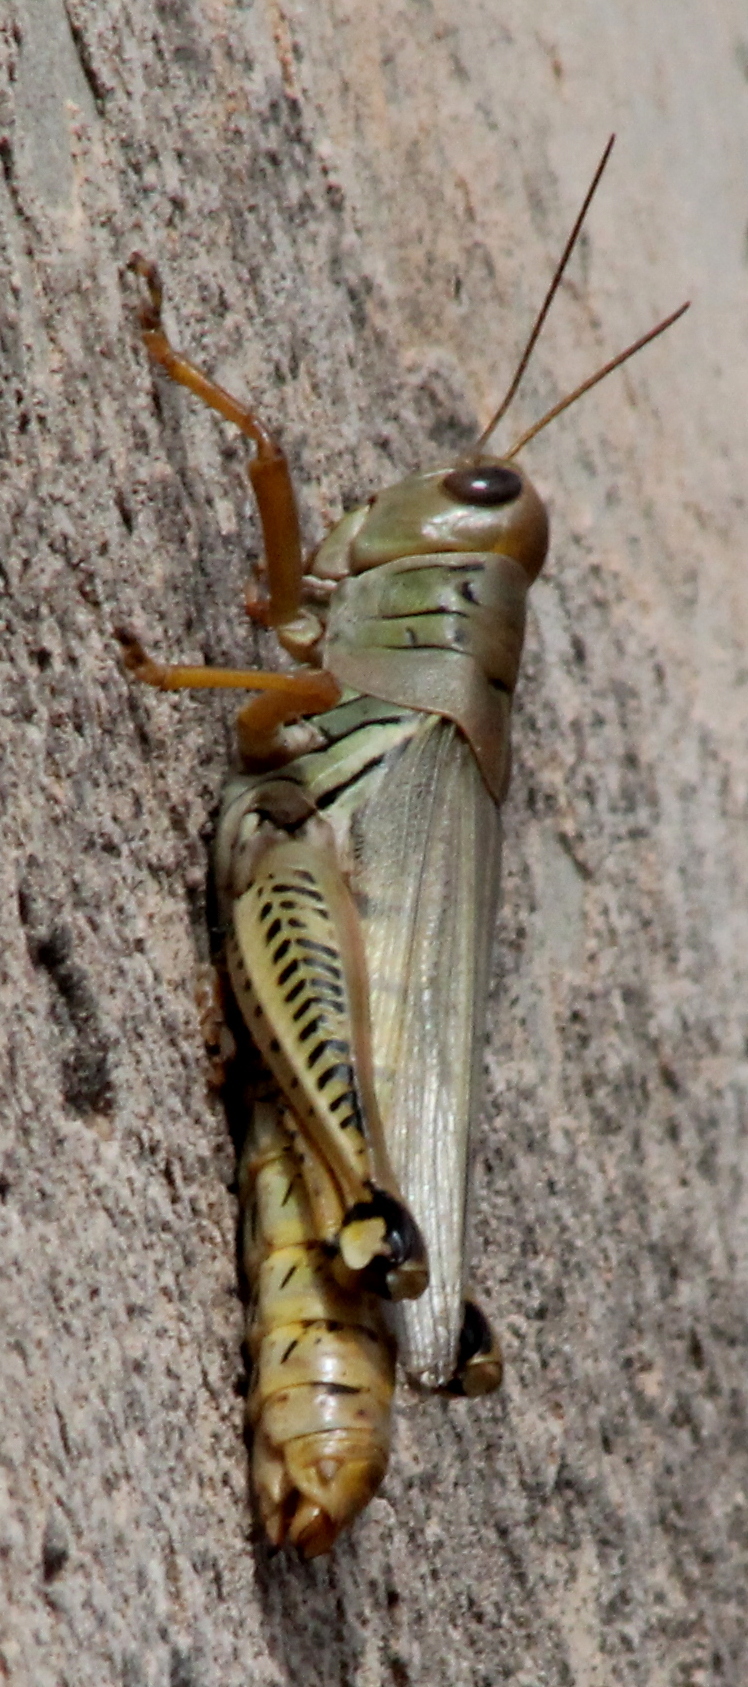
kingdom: Animalia
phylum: Arthropoda
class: Insecta
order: Orthoptera
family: Acrididae
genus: Melanoplus
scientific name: Melanoplus differentialis
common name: Differential grasshopper
